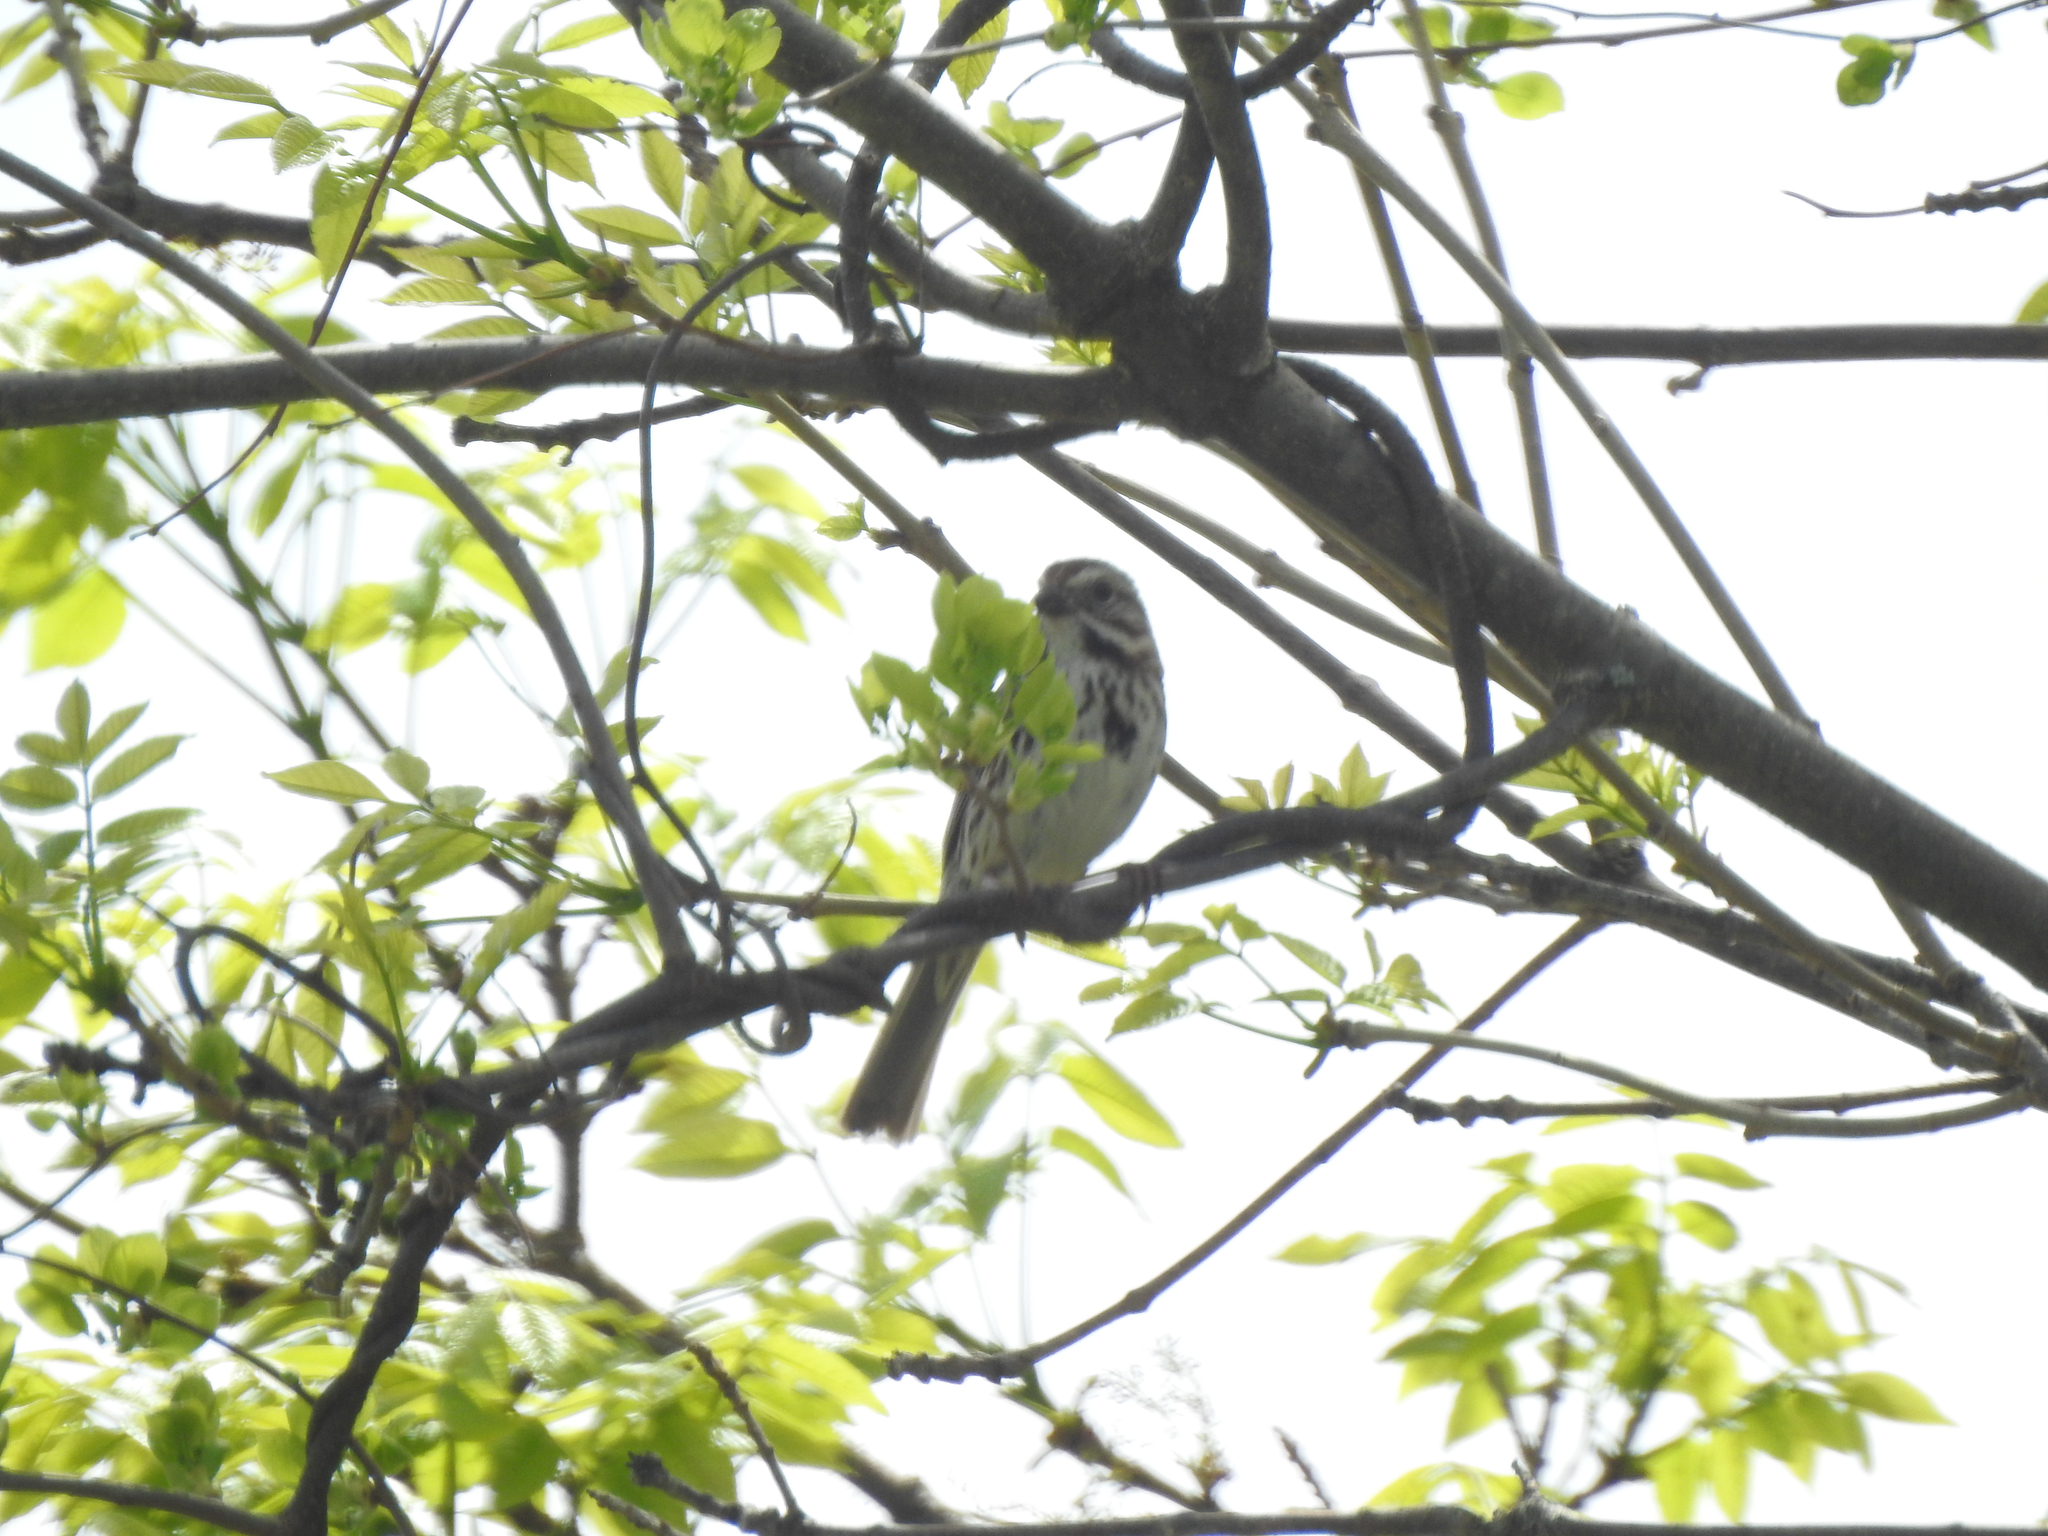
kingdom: Animalia
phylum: Chordata
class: Aves
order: Passeriformes
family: Passerellidae
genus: Melospiza
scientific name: Melospiza melodia
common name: Song sparrow
